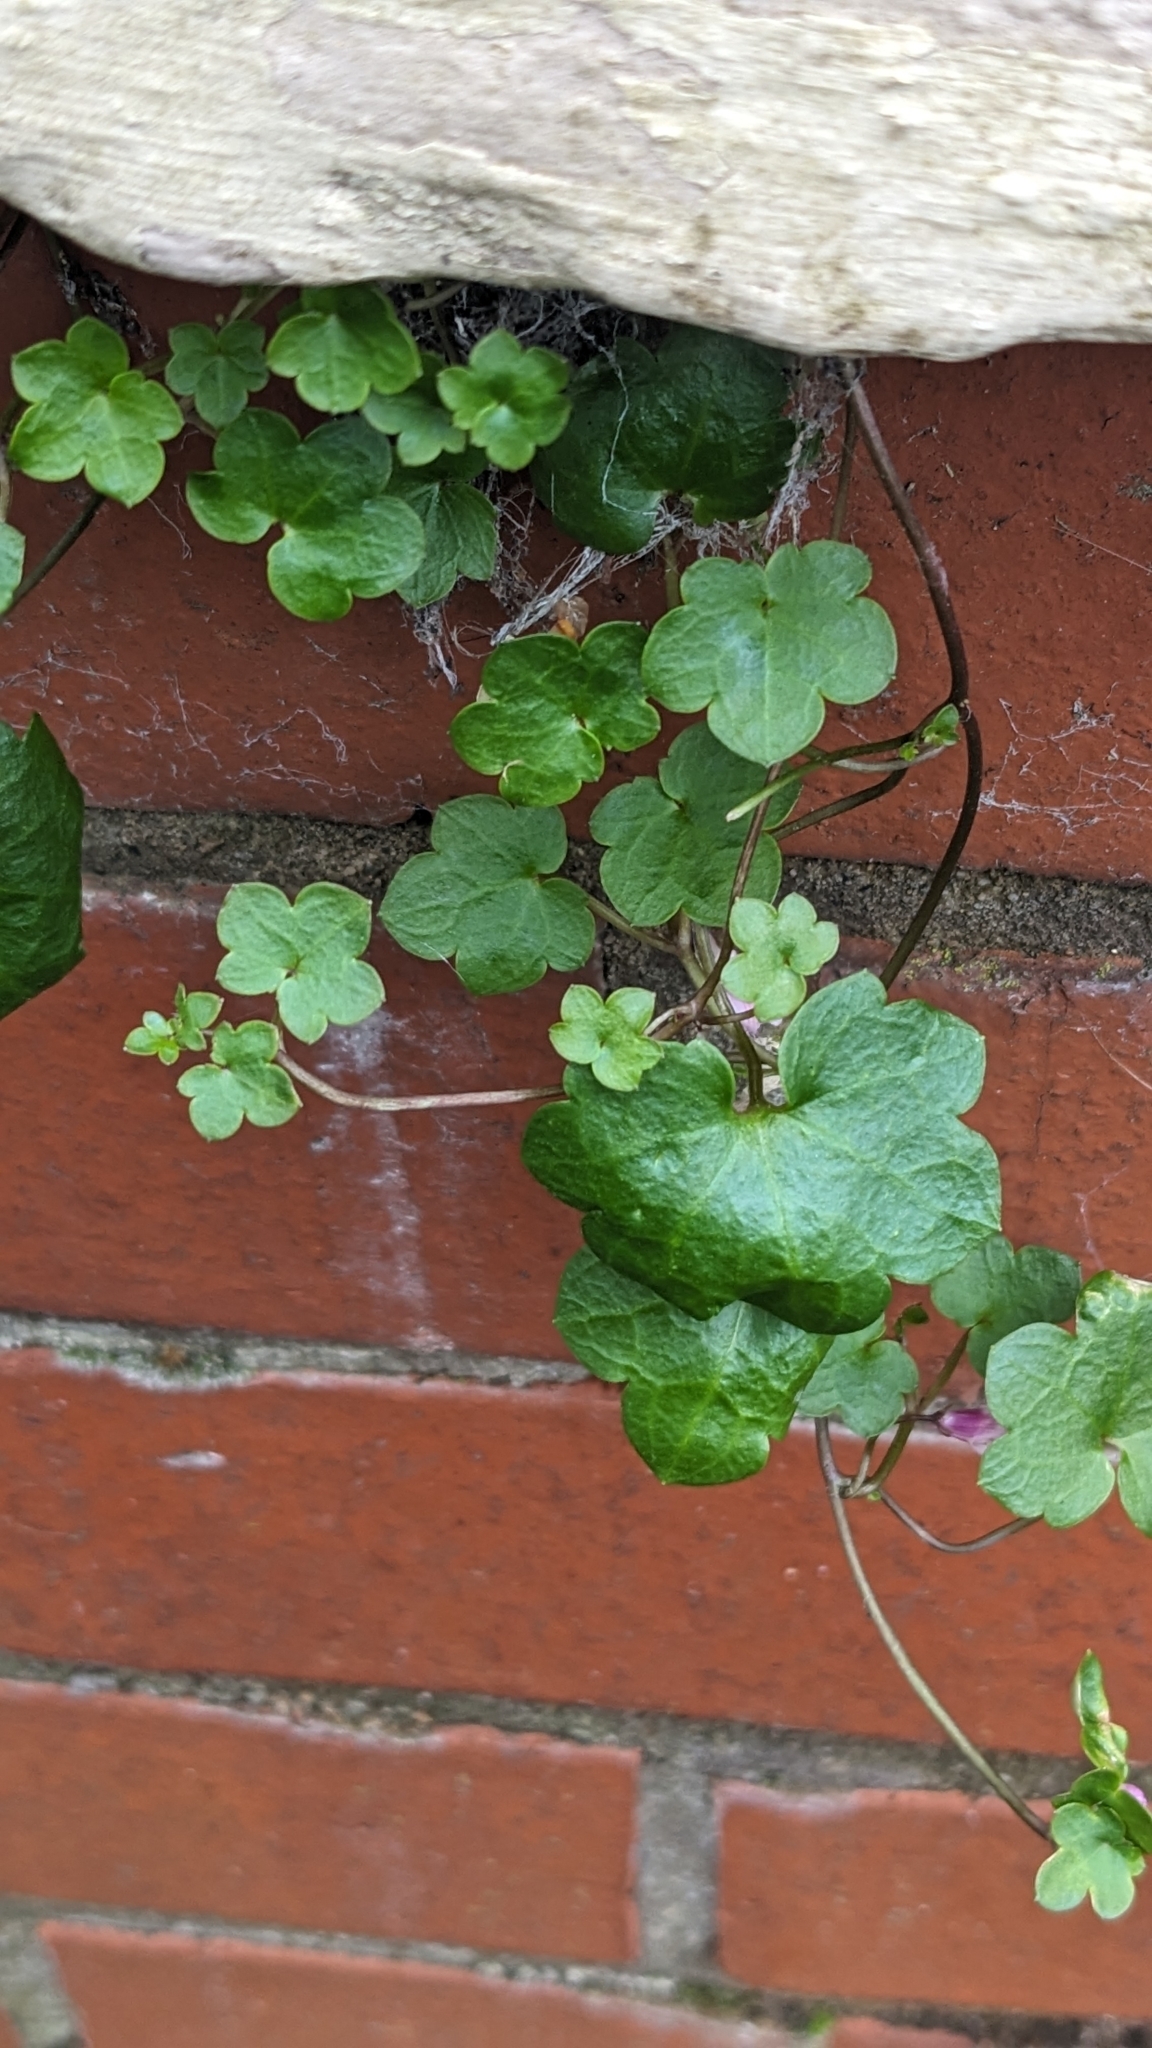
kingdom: Plantae
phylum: Tracheophyta
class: Magnoliopsida
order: Lamiales
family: Plantaginaceae
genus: Cymbalaria
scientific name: Cymbalaria muralis
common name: Ivy-leaved toadflax
